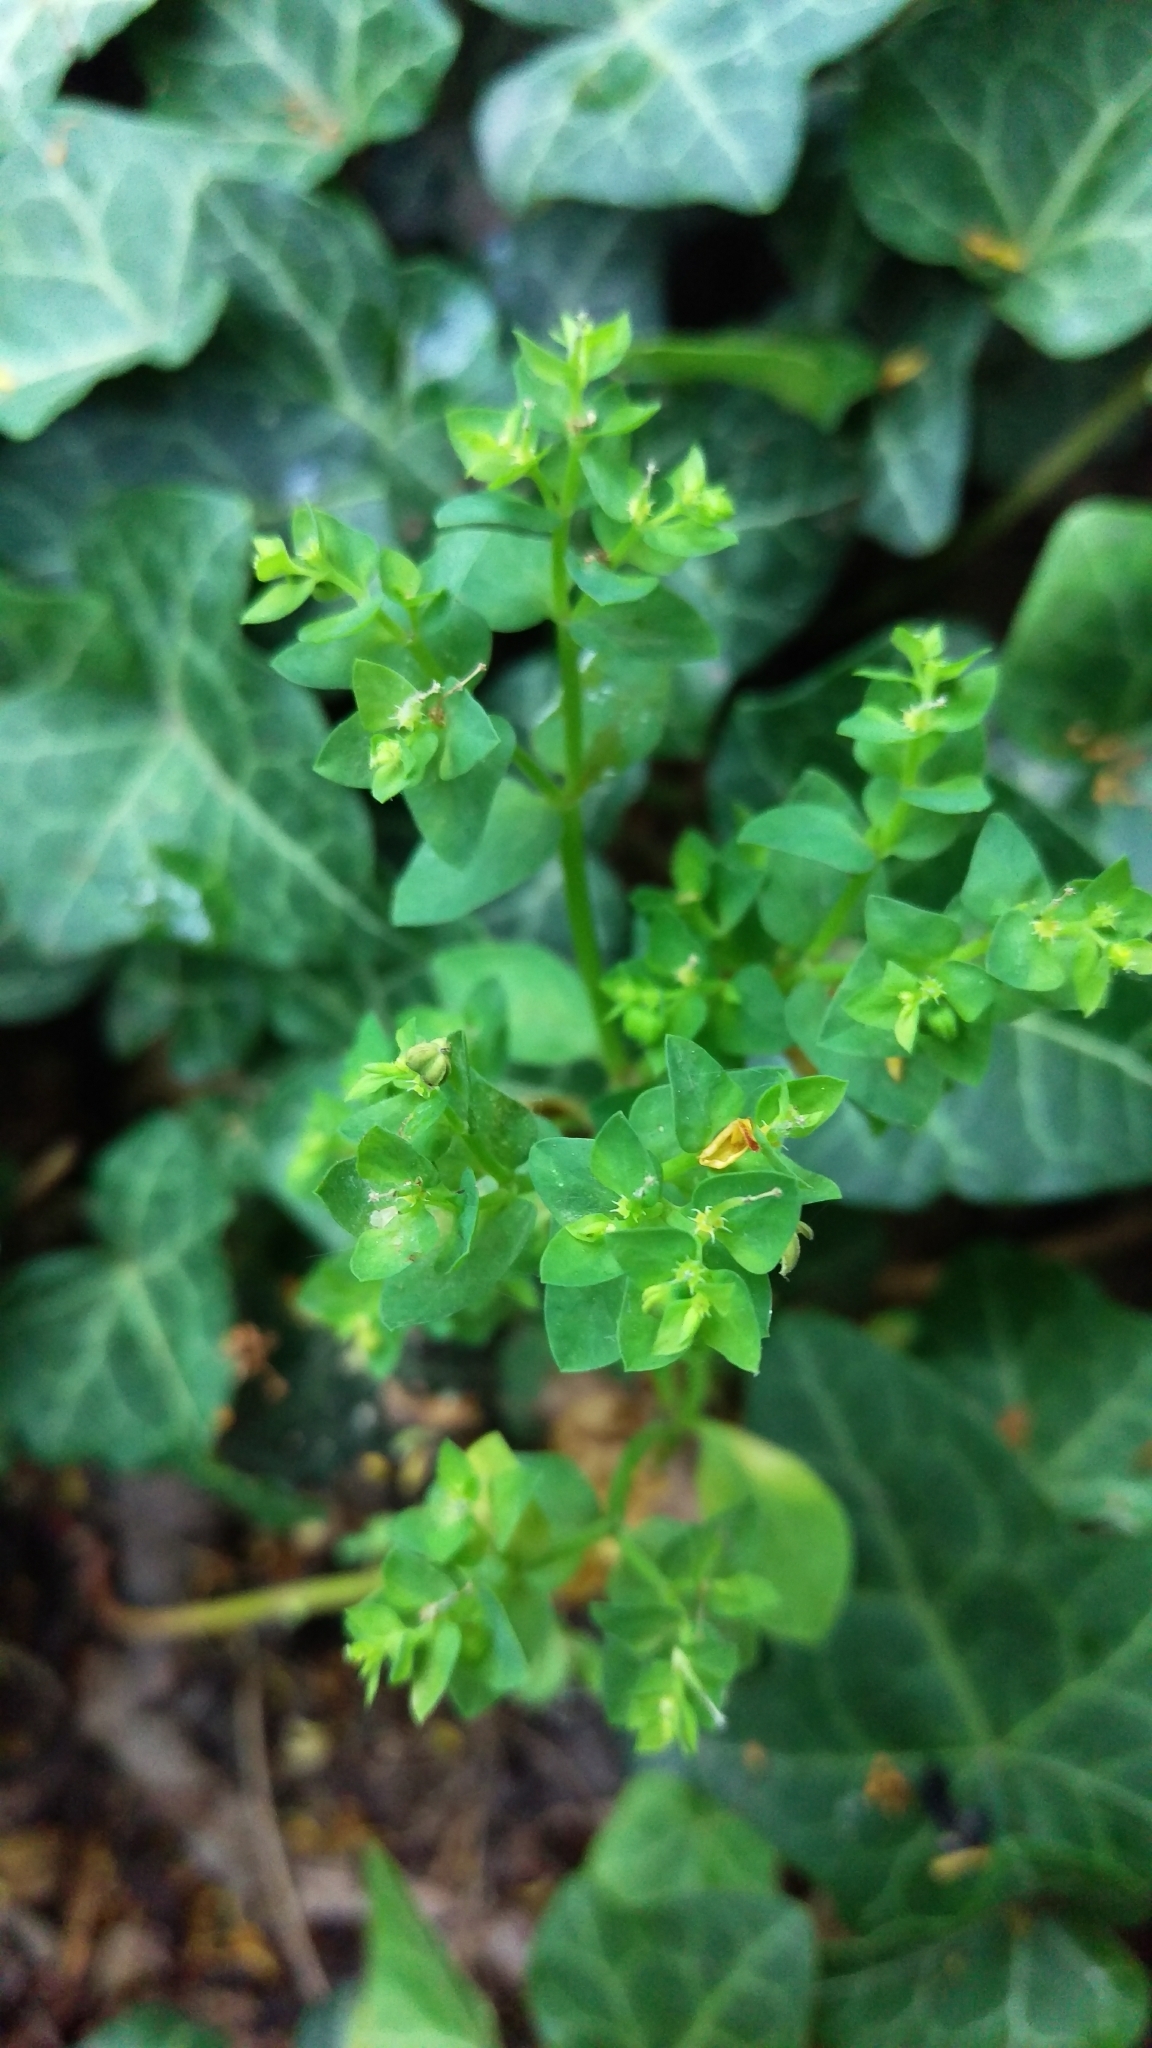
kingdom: Plantae
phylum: Tracheophyta
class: Magnoliopsida
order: Malpighiales
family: Euphorbiaceae
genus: Euphorbia
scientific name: Euphorbia peplus
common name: Petty spurge
